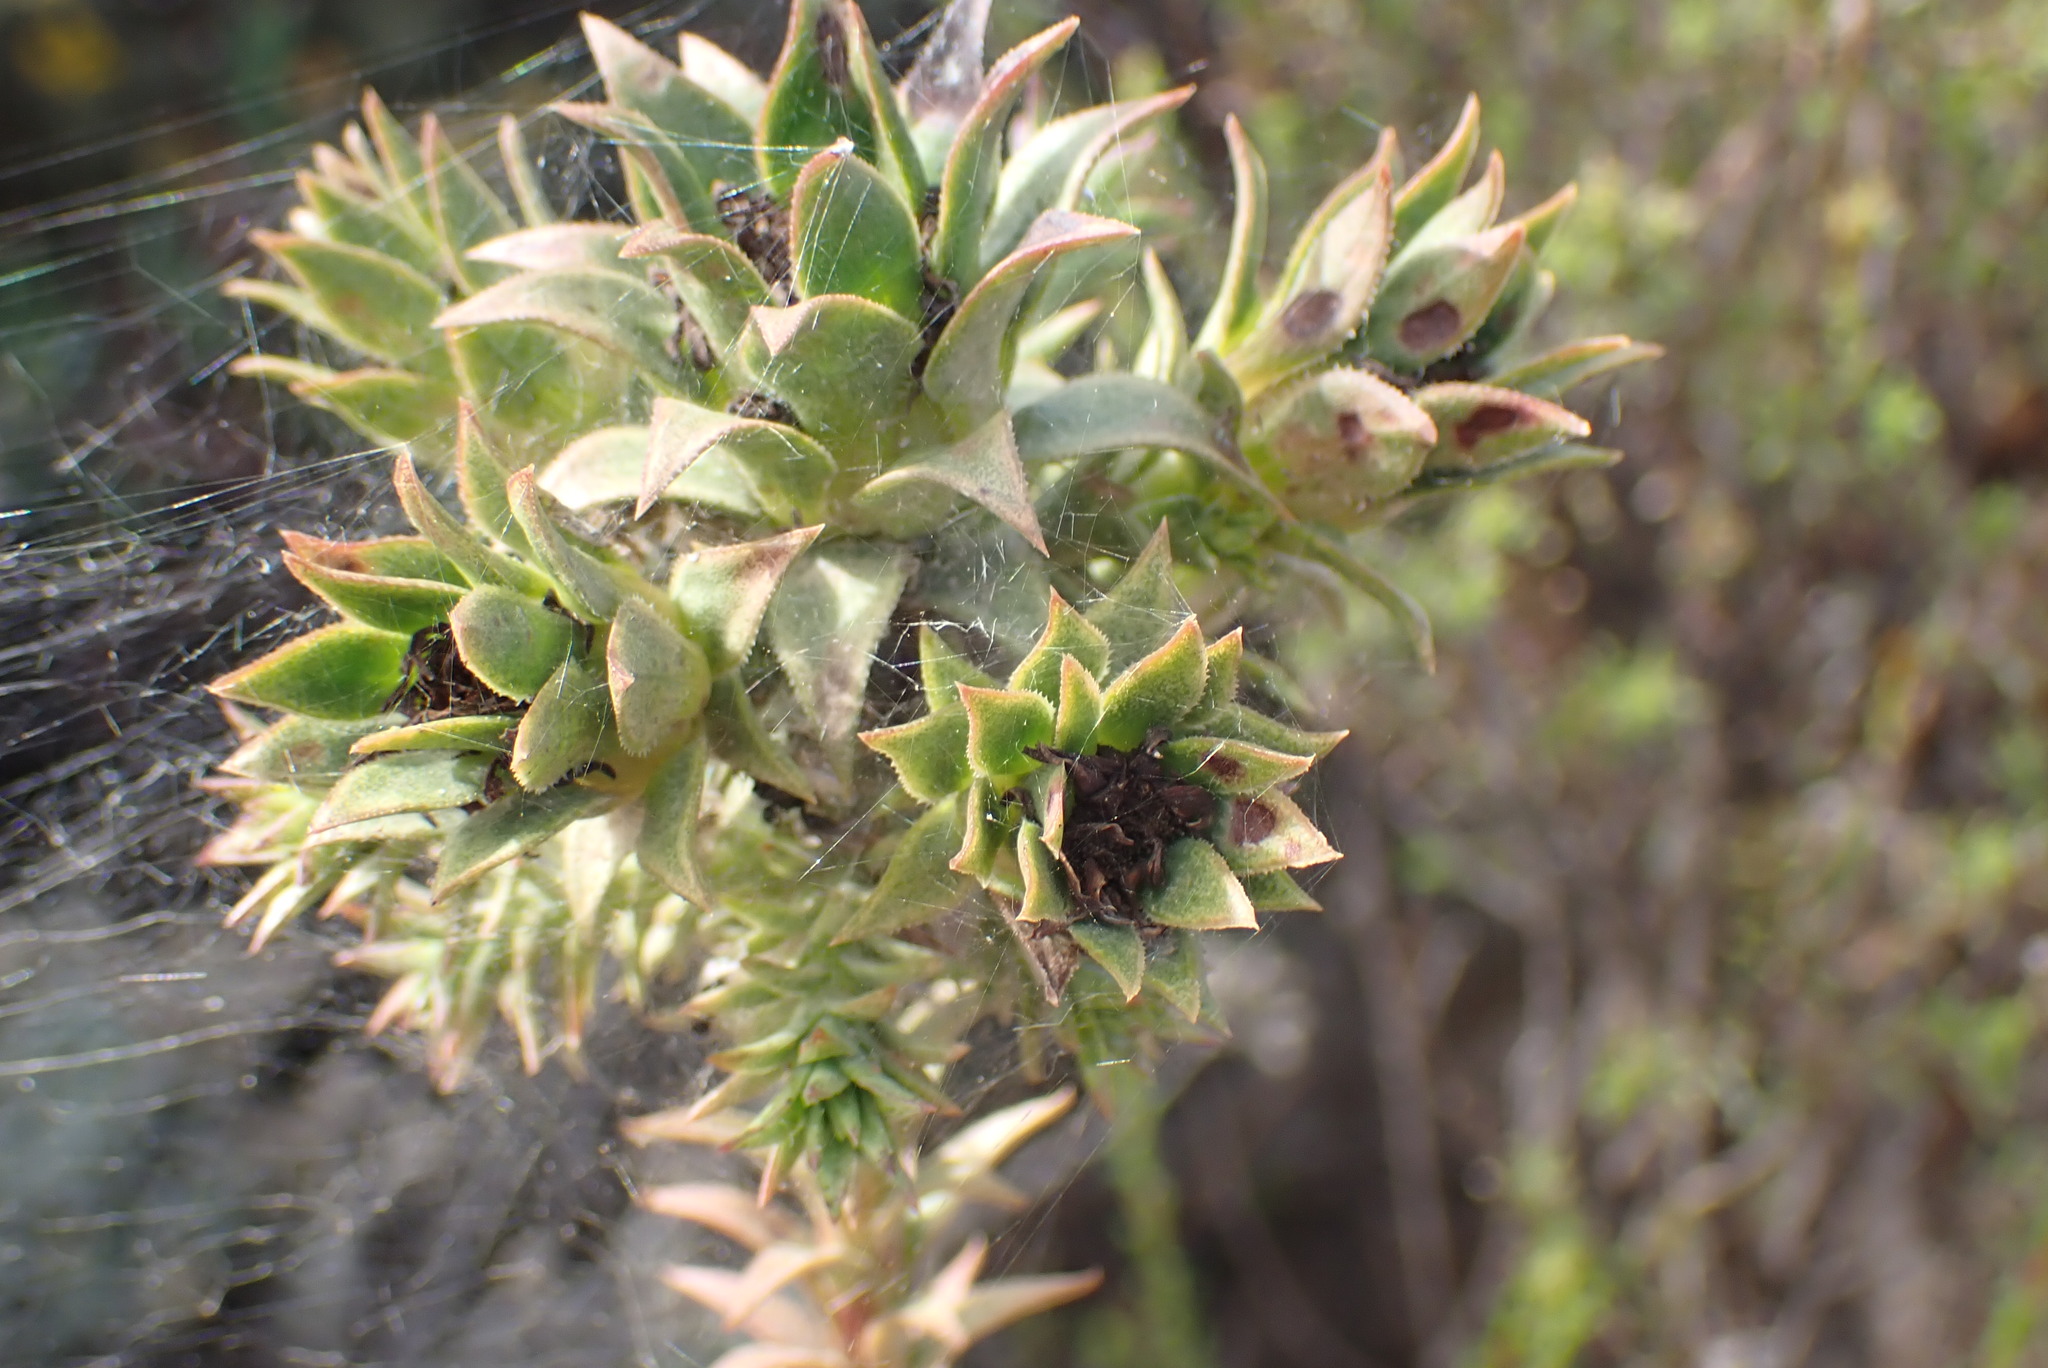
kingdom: Plantae
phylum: Tracheophyta
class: Magnoliopsida
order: Asterales
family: Asteraceae
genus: Oedera
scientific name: Oedera imbricata
